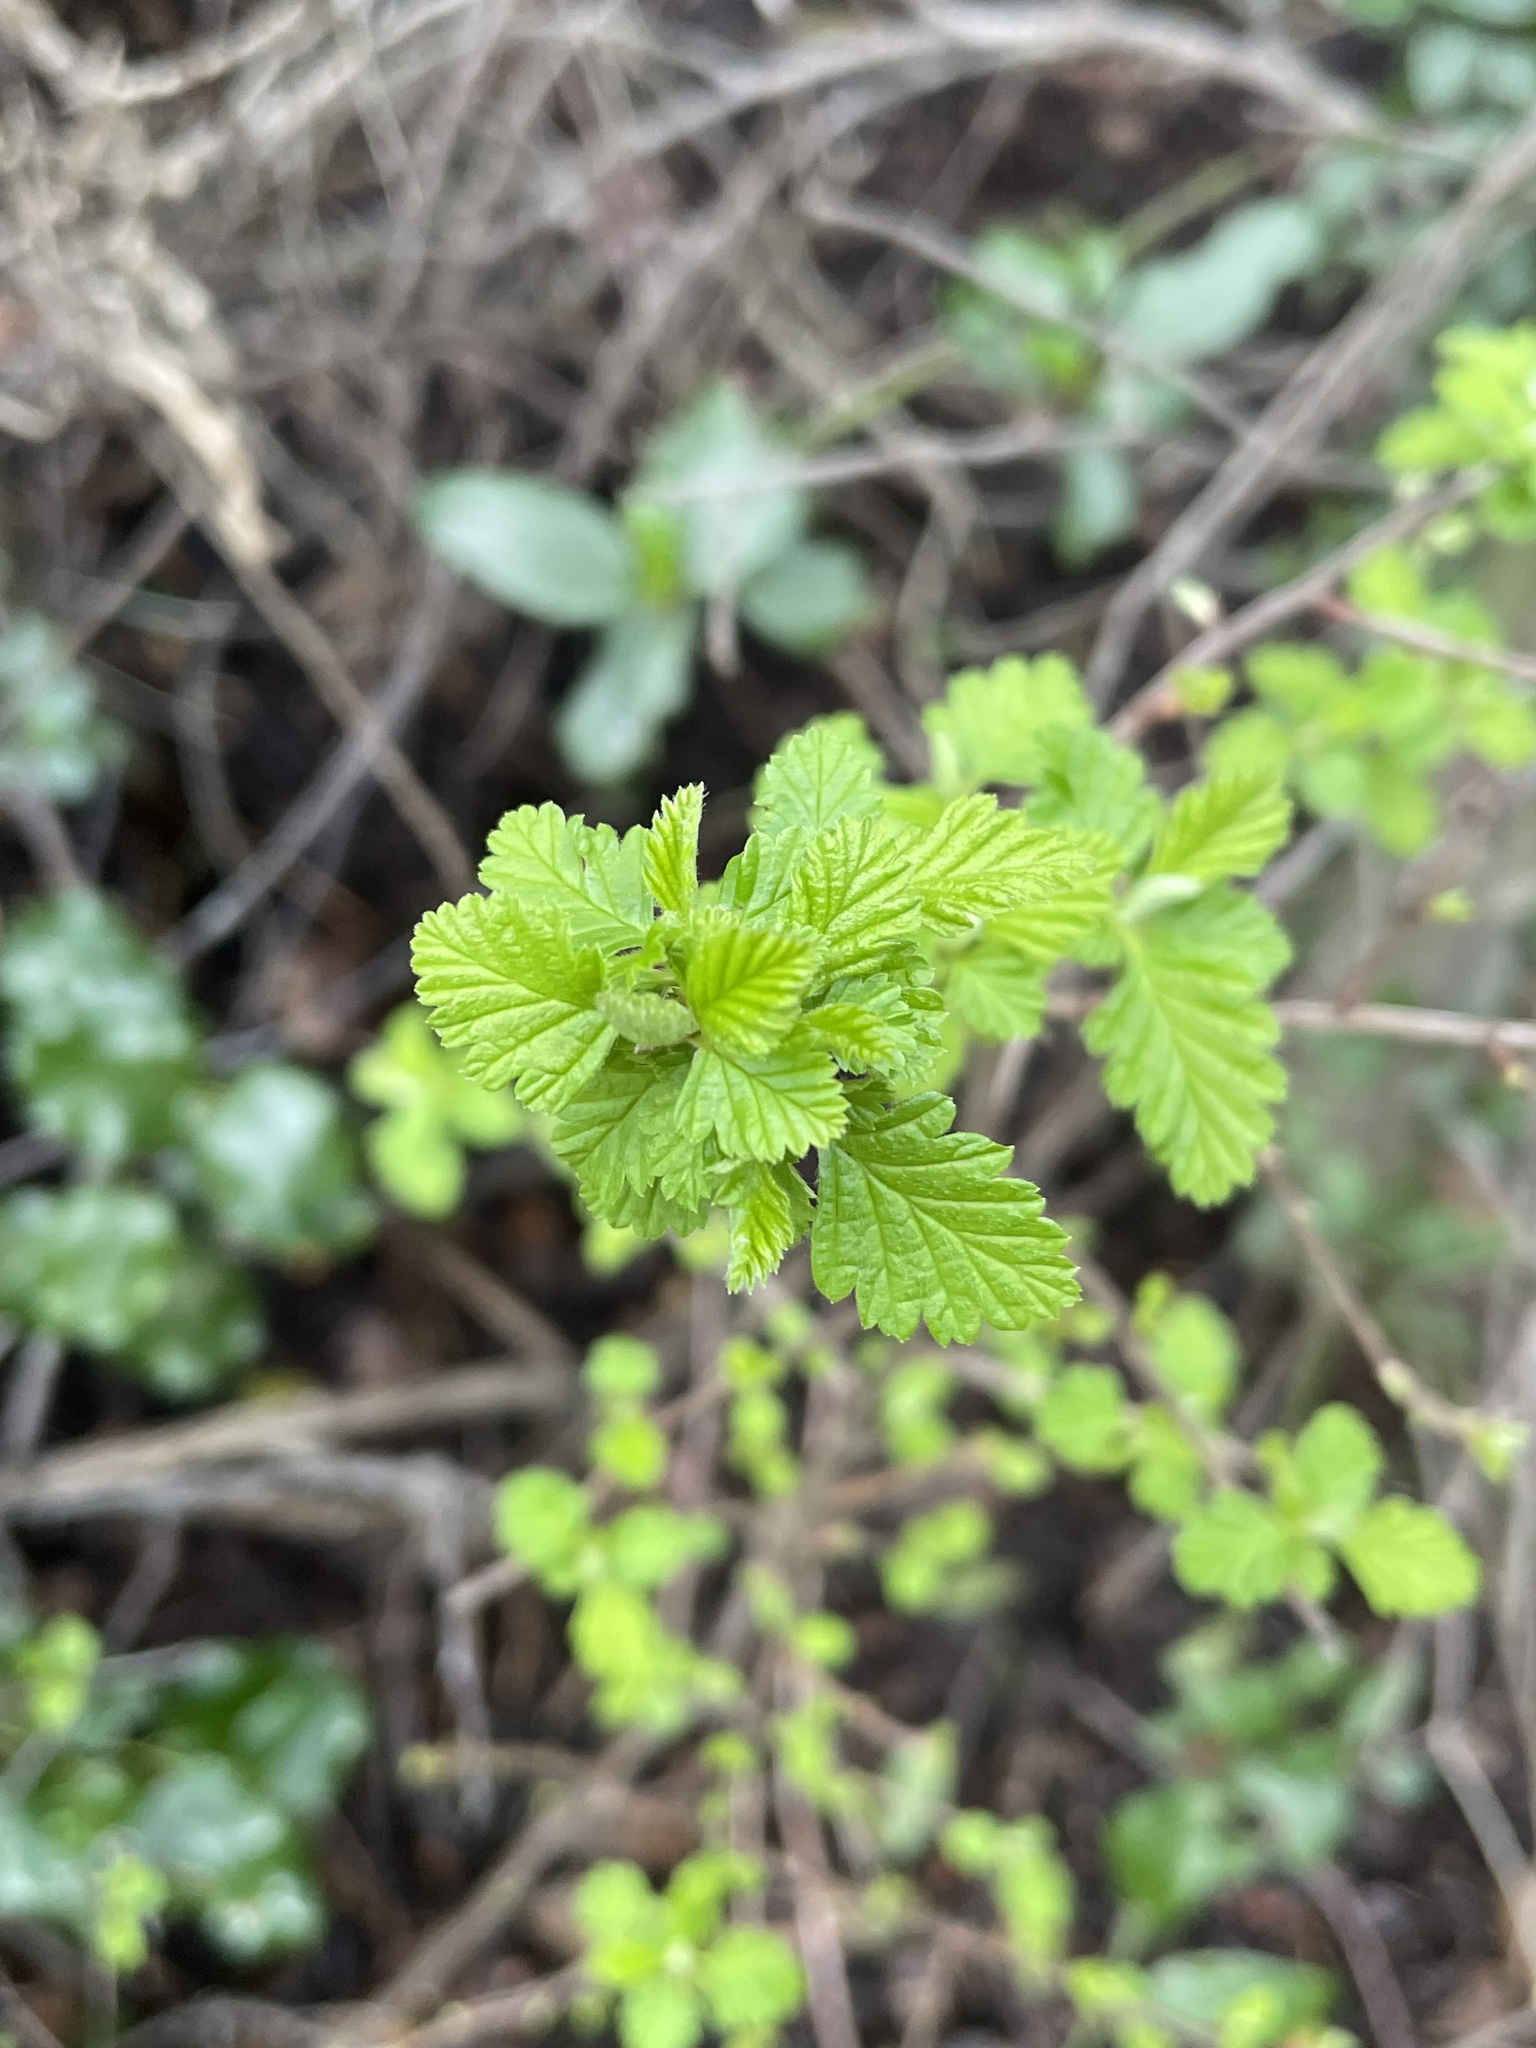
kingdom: Plantae
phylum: Tracheophyta
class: Magnoliopsida
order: Rosales
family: Rosaceae
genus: Holodiscus
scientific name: Holodiscus discolor
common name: Oceanspray
